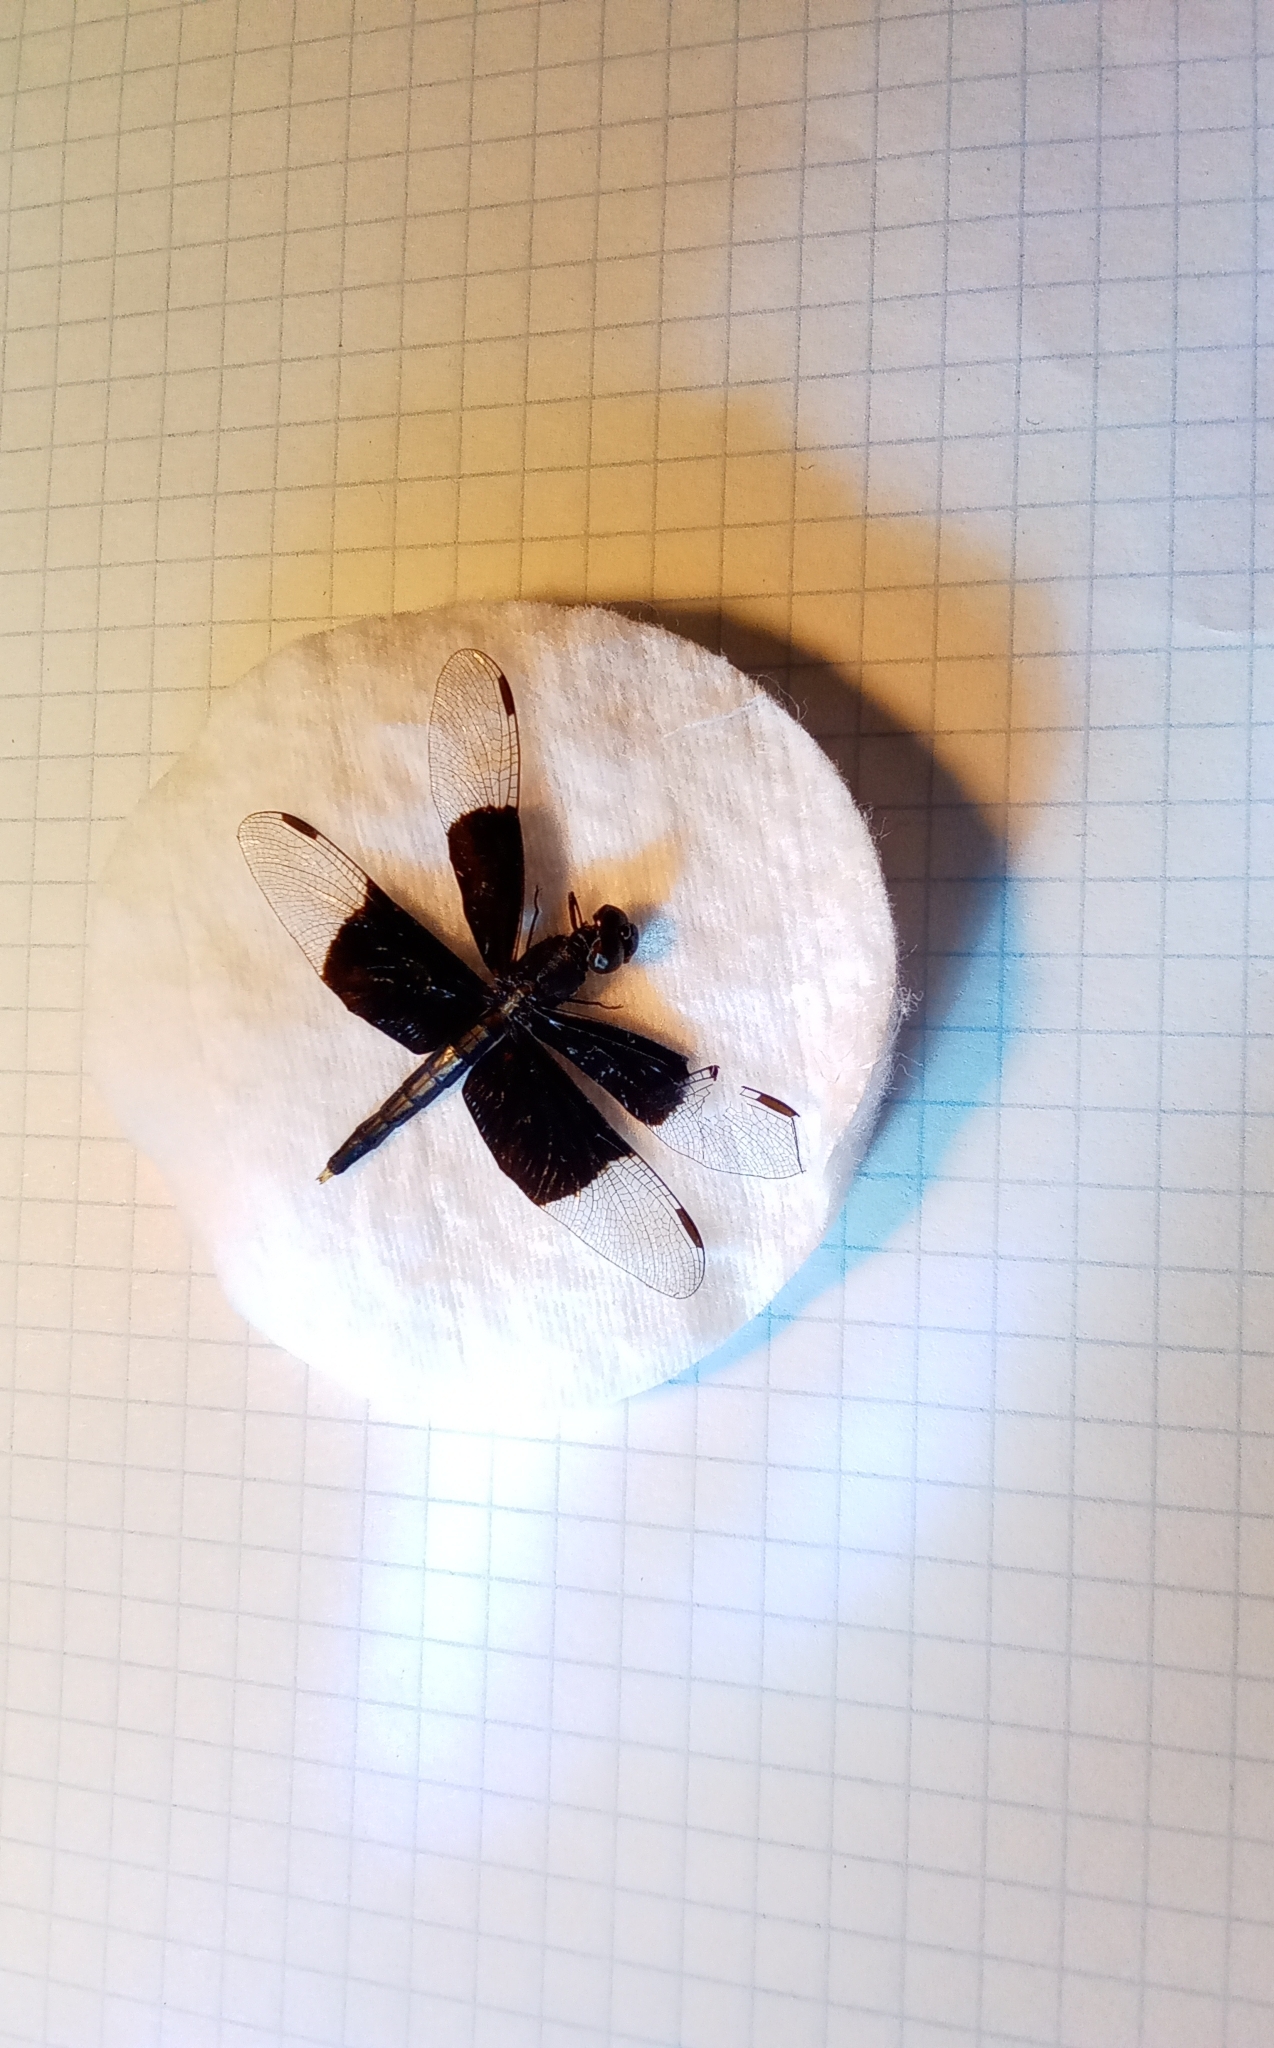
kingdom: Animalia
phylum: Arthropoda
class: Insecta
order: Odonata
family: Libellulidae
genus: Neurothemis
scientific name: Neurothemis tullia
